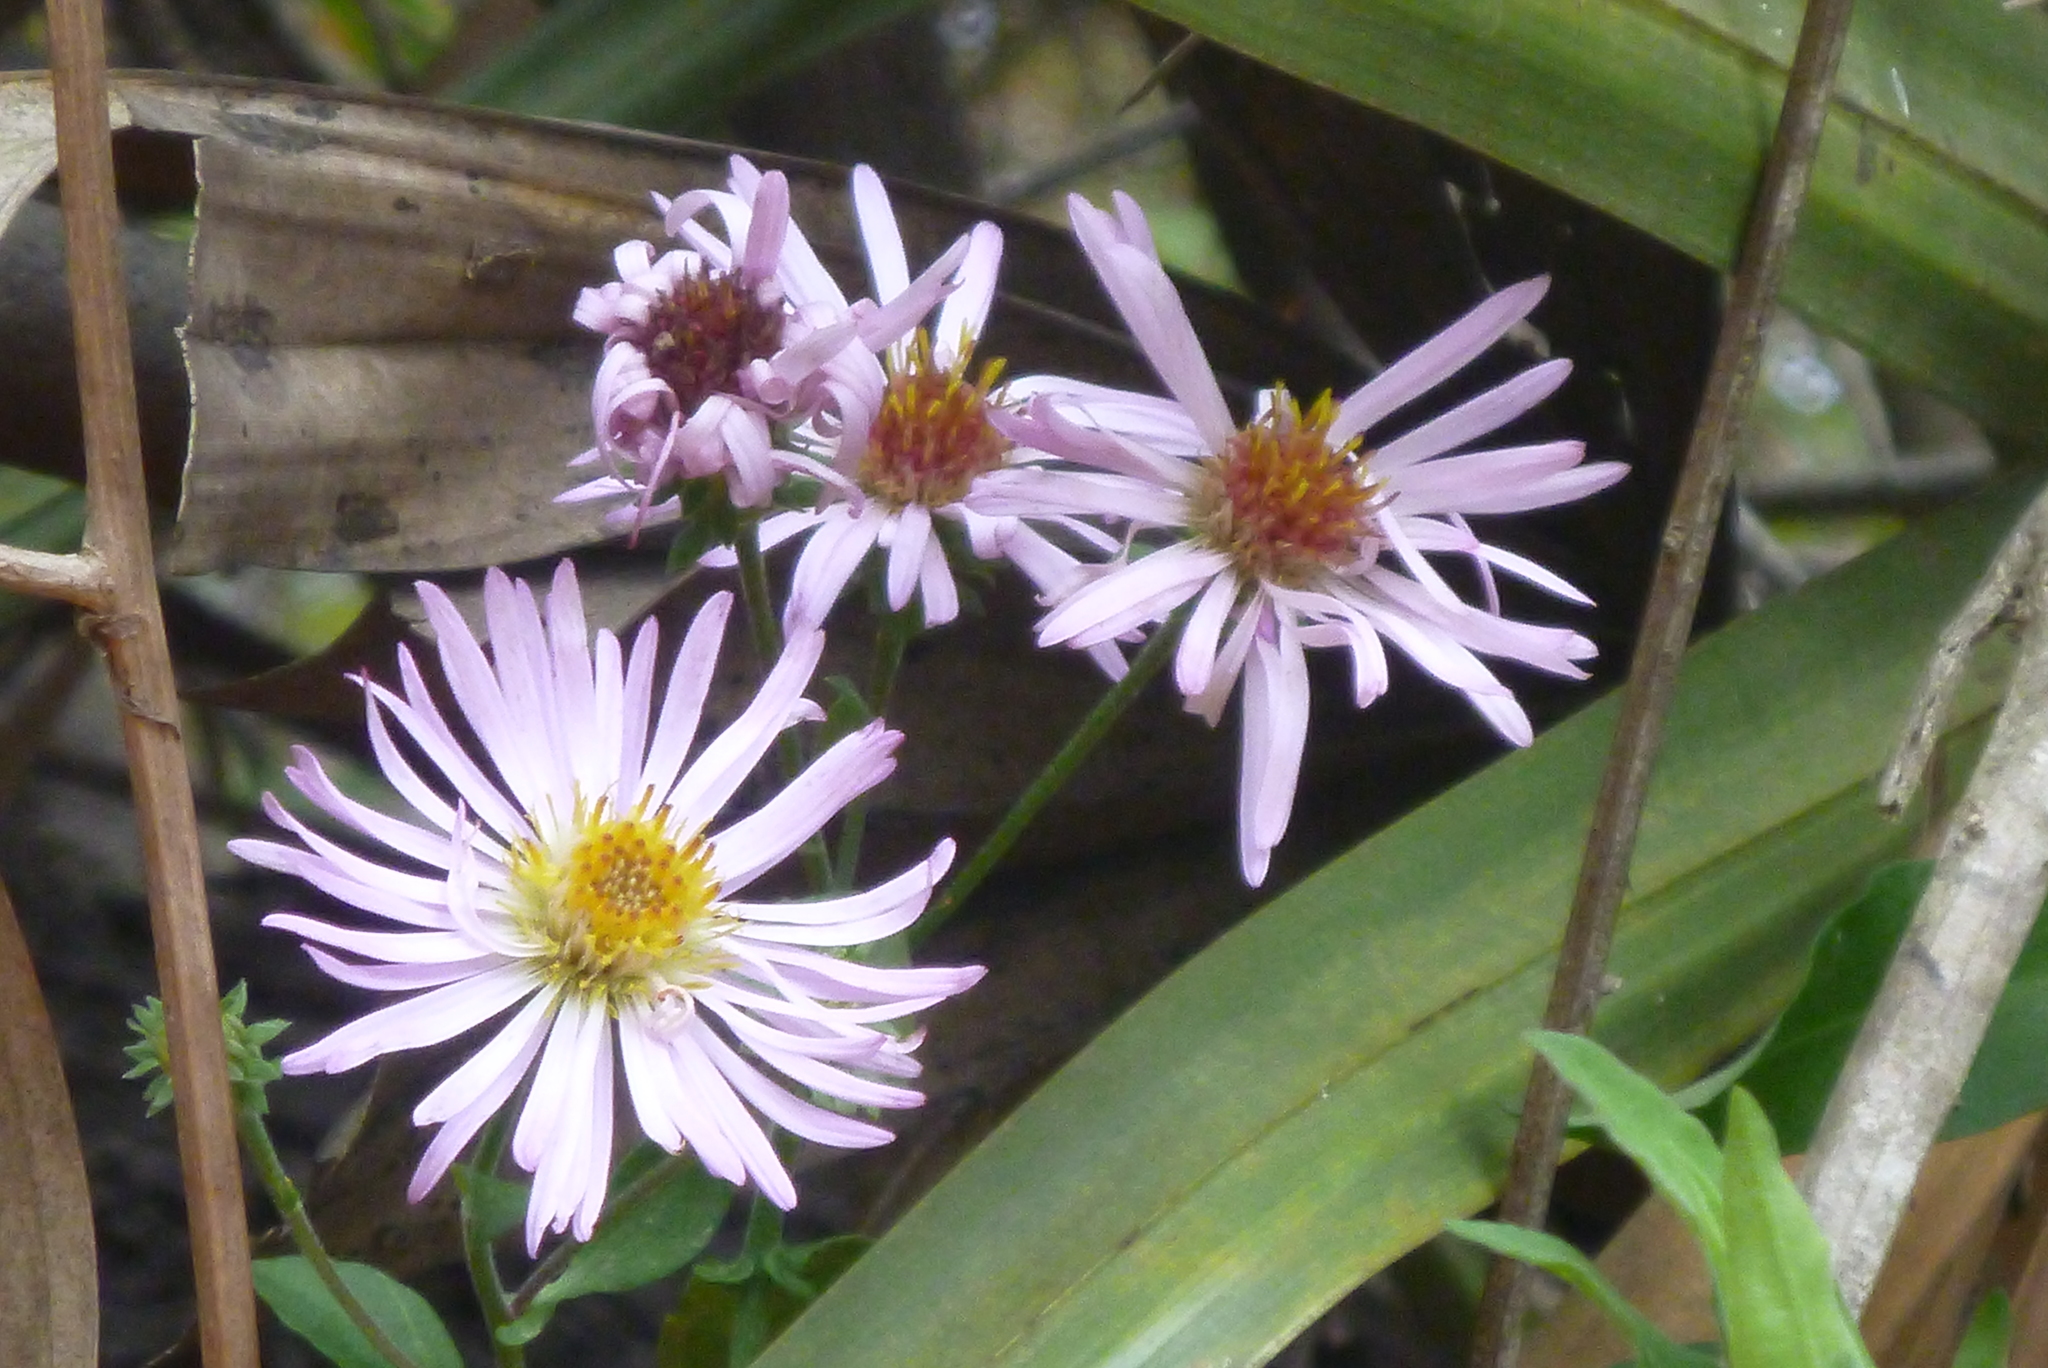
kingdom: Plantae
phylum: Tracheophyta
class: Magnoliopsida
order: Asterales
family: Asteraceae
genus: Ampelaster
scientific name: Ampelaster carolinianus
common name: Climbing aster
